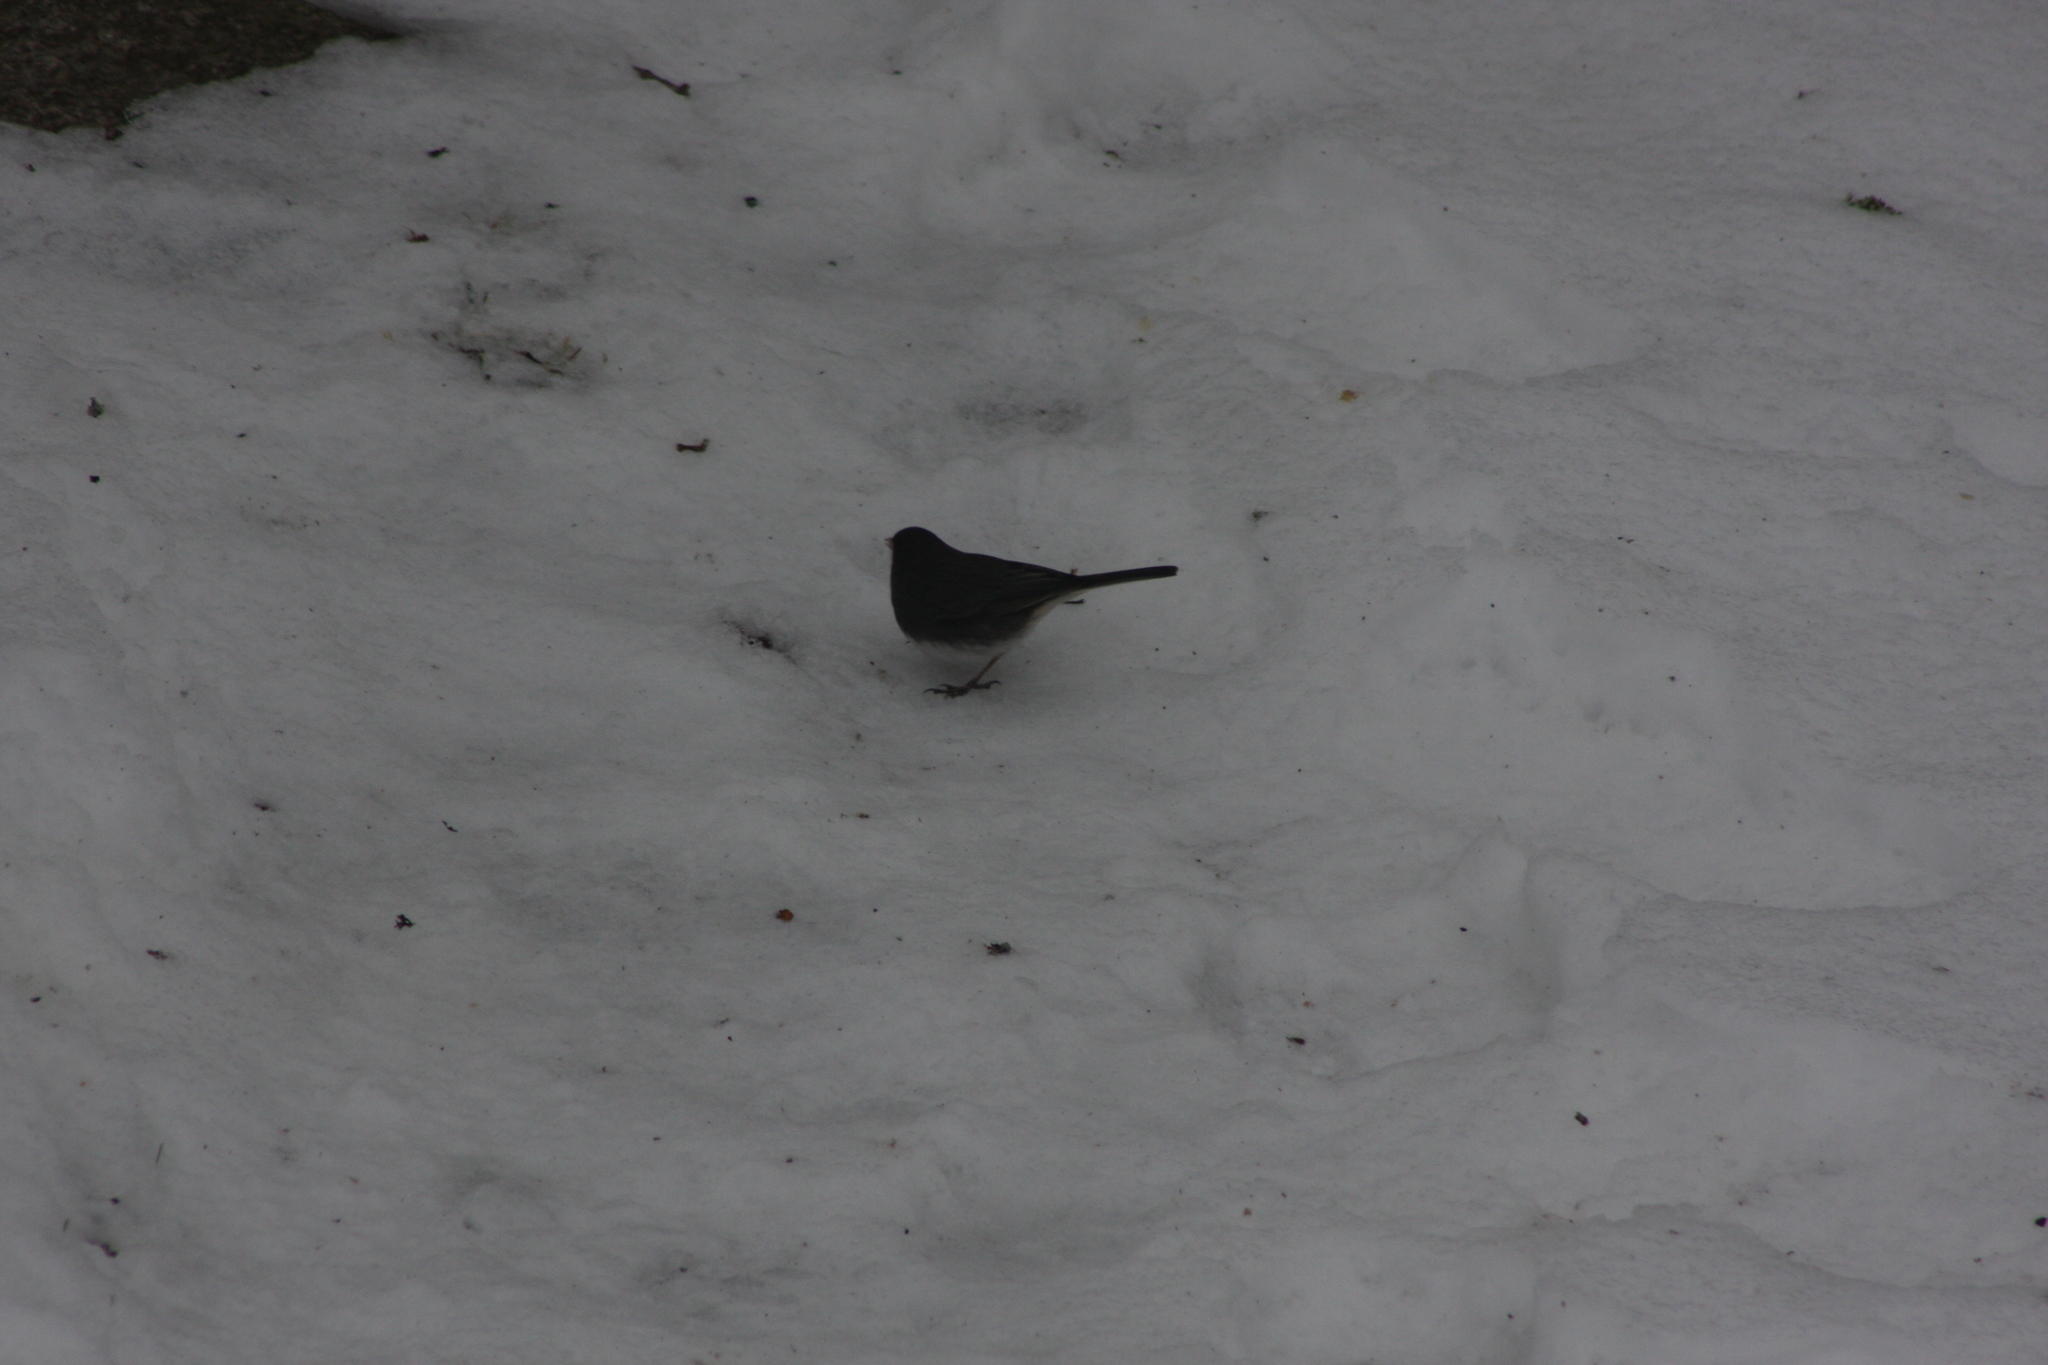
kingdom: Animalia
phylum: Chordata
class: Aves
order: Passeriformes
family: Passerellidae
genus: Junco
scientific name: Junco hyemalis
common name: Dark-eyed junco
